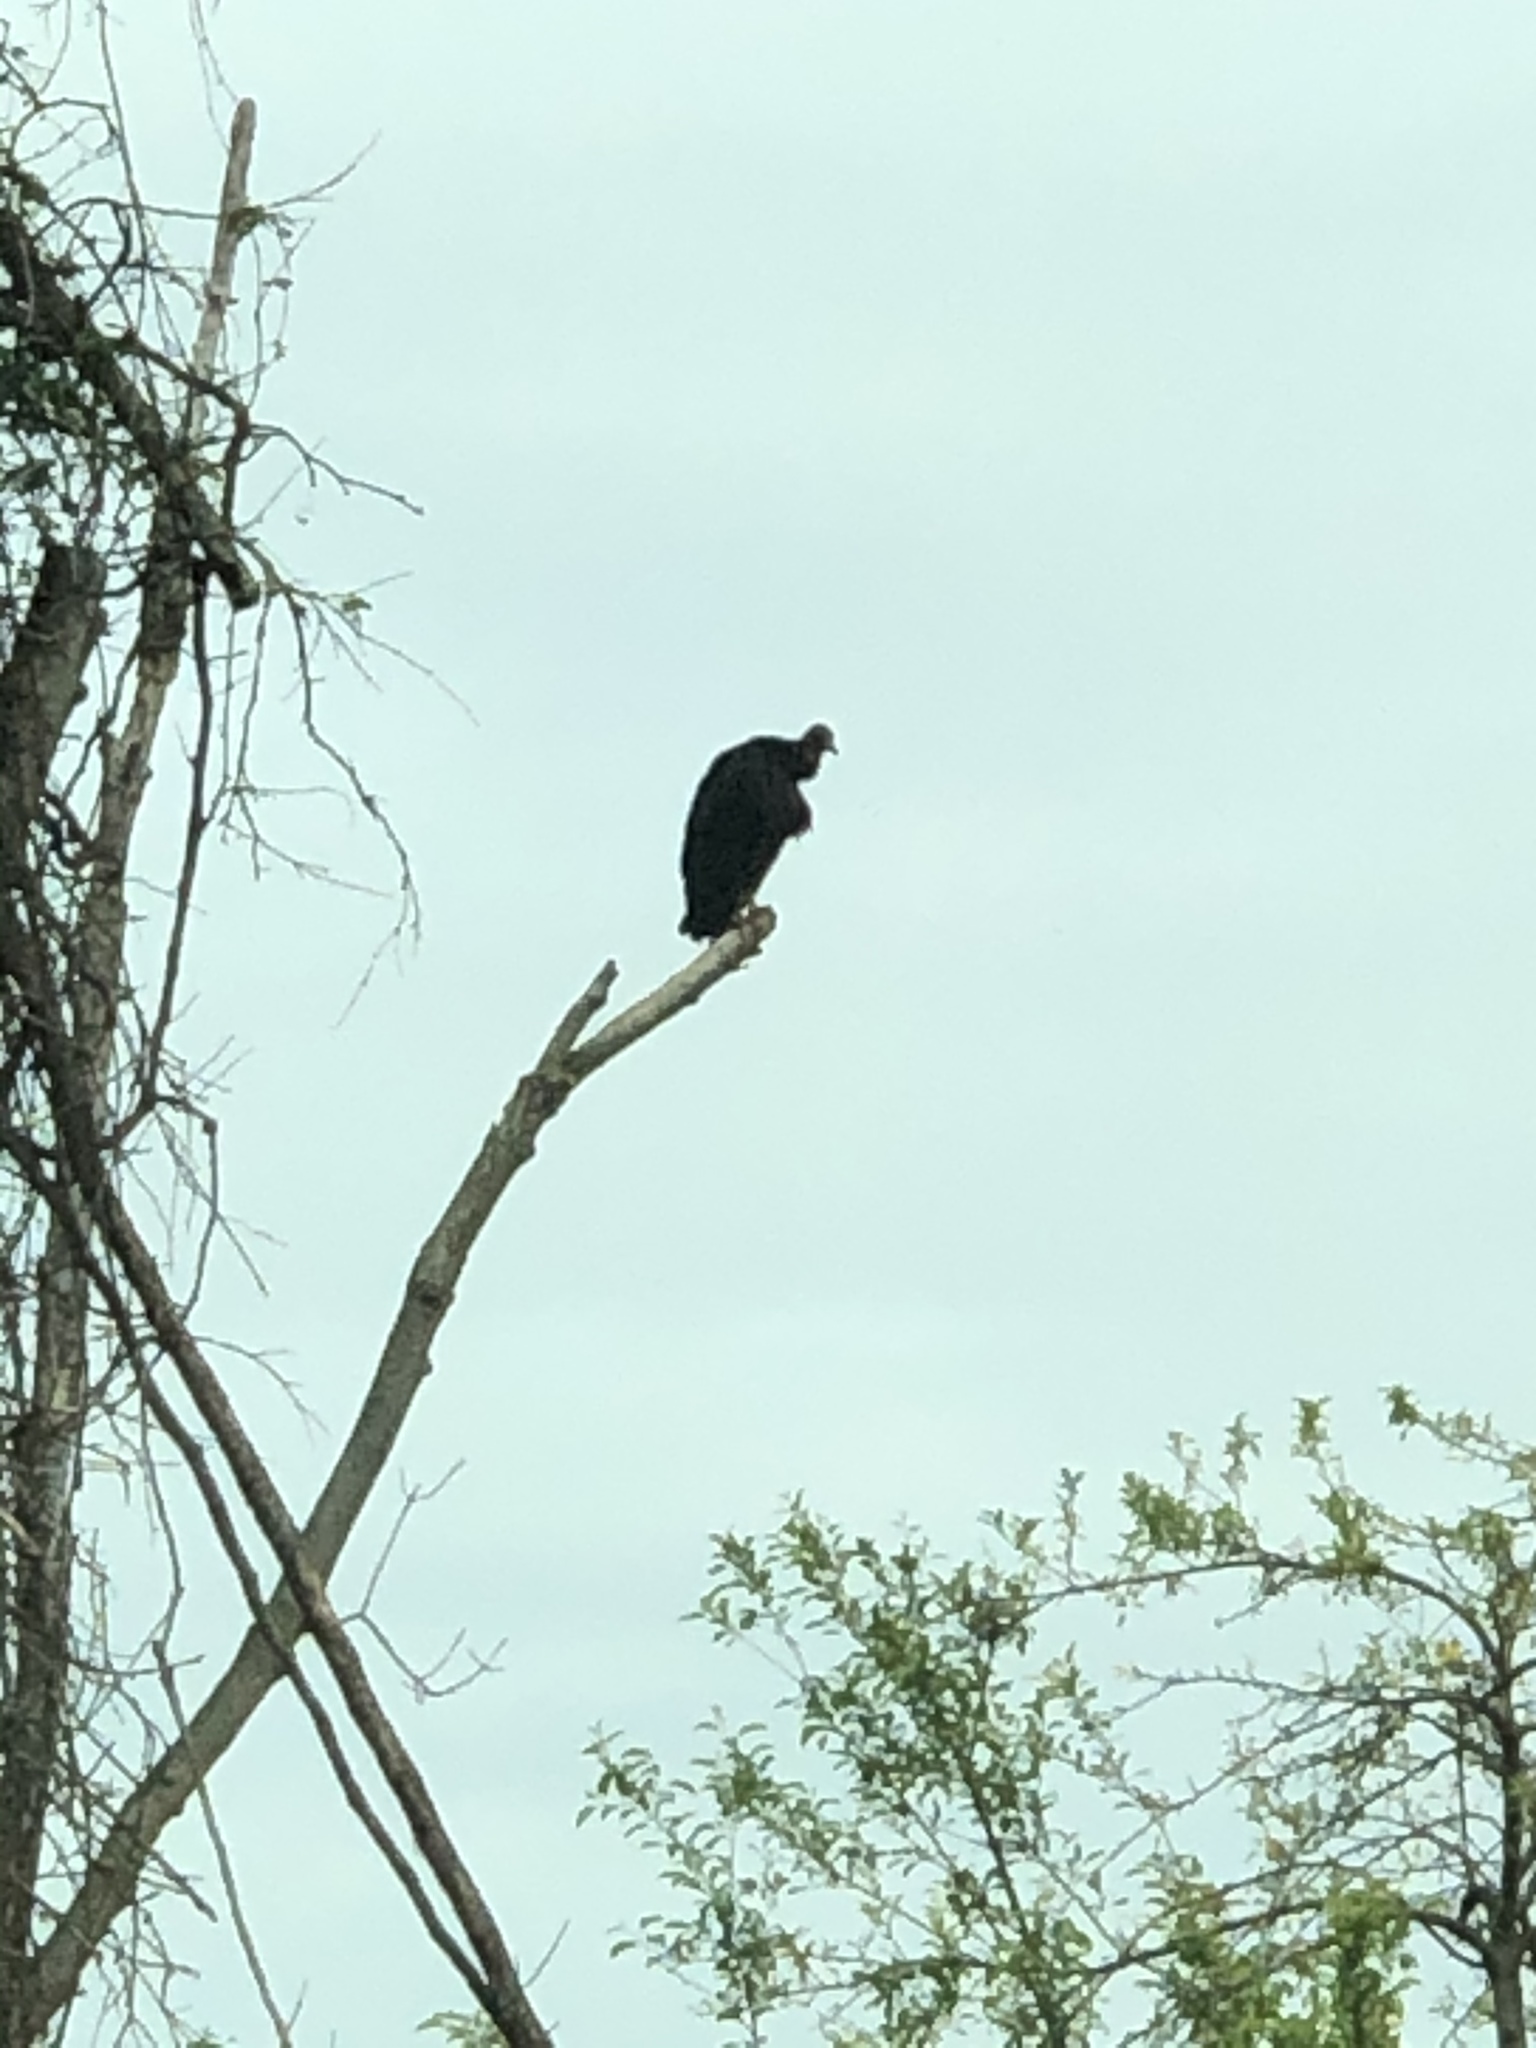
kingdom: Animalia
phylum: Chordata
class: Aves
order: Accipitriformes
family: Cathartidae
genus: Coragyps
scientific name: Coragyps atratus
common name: Black vulture
